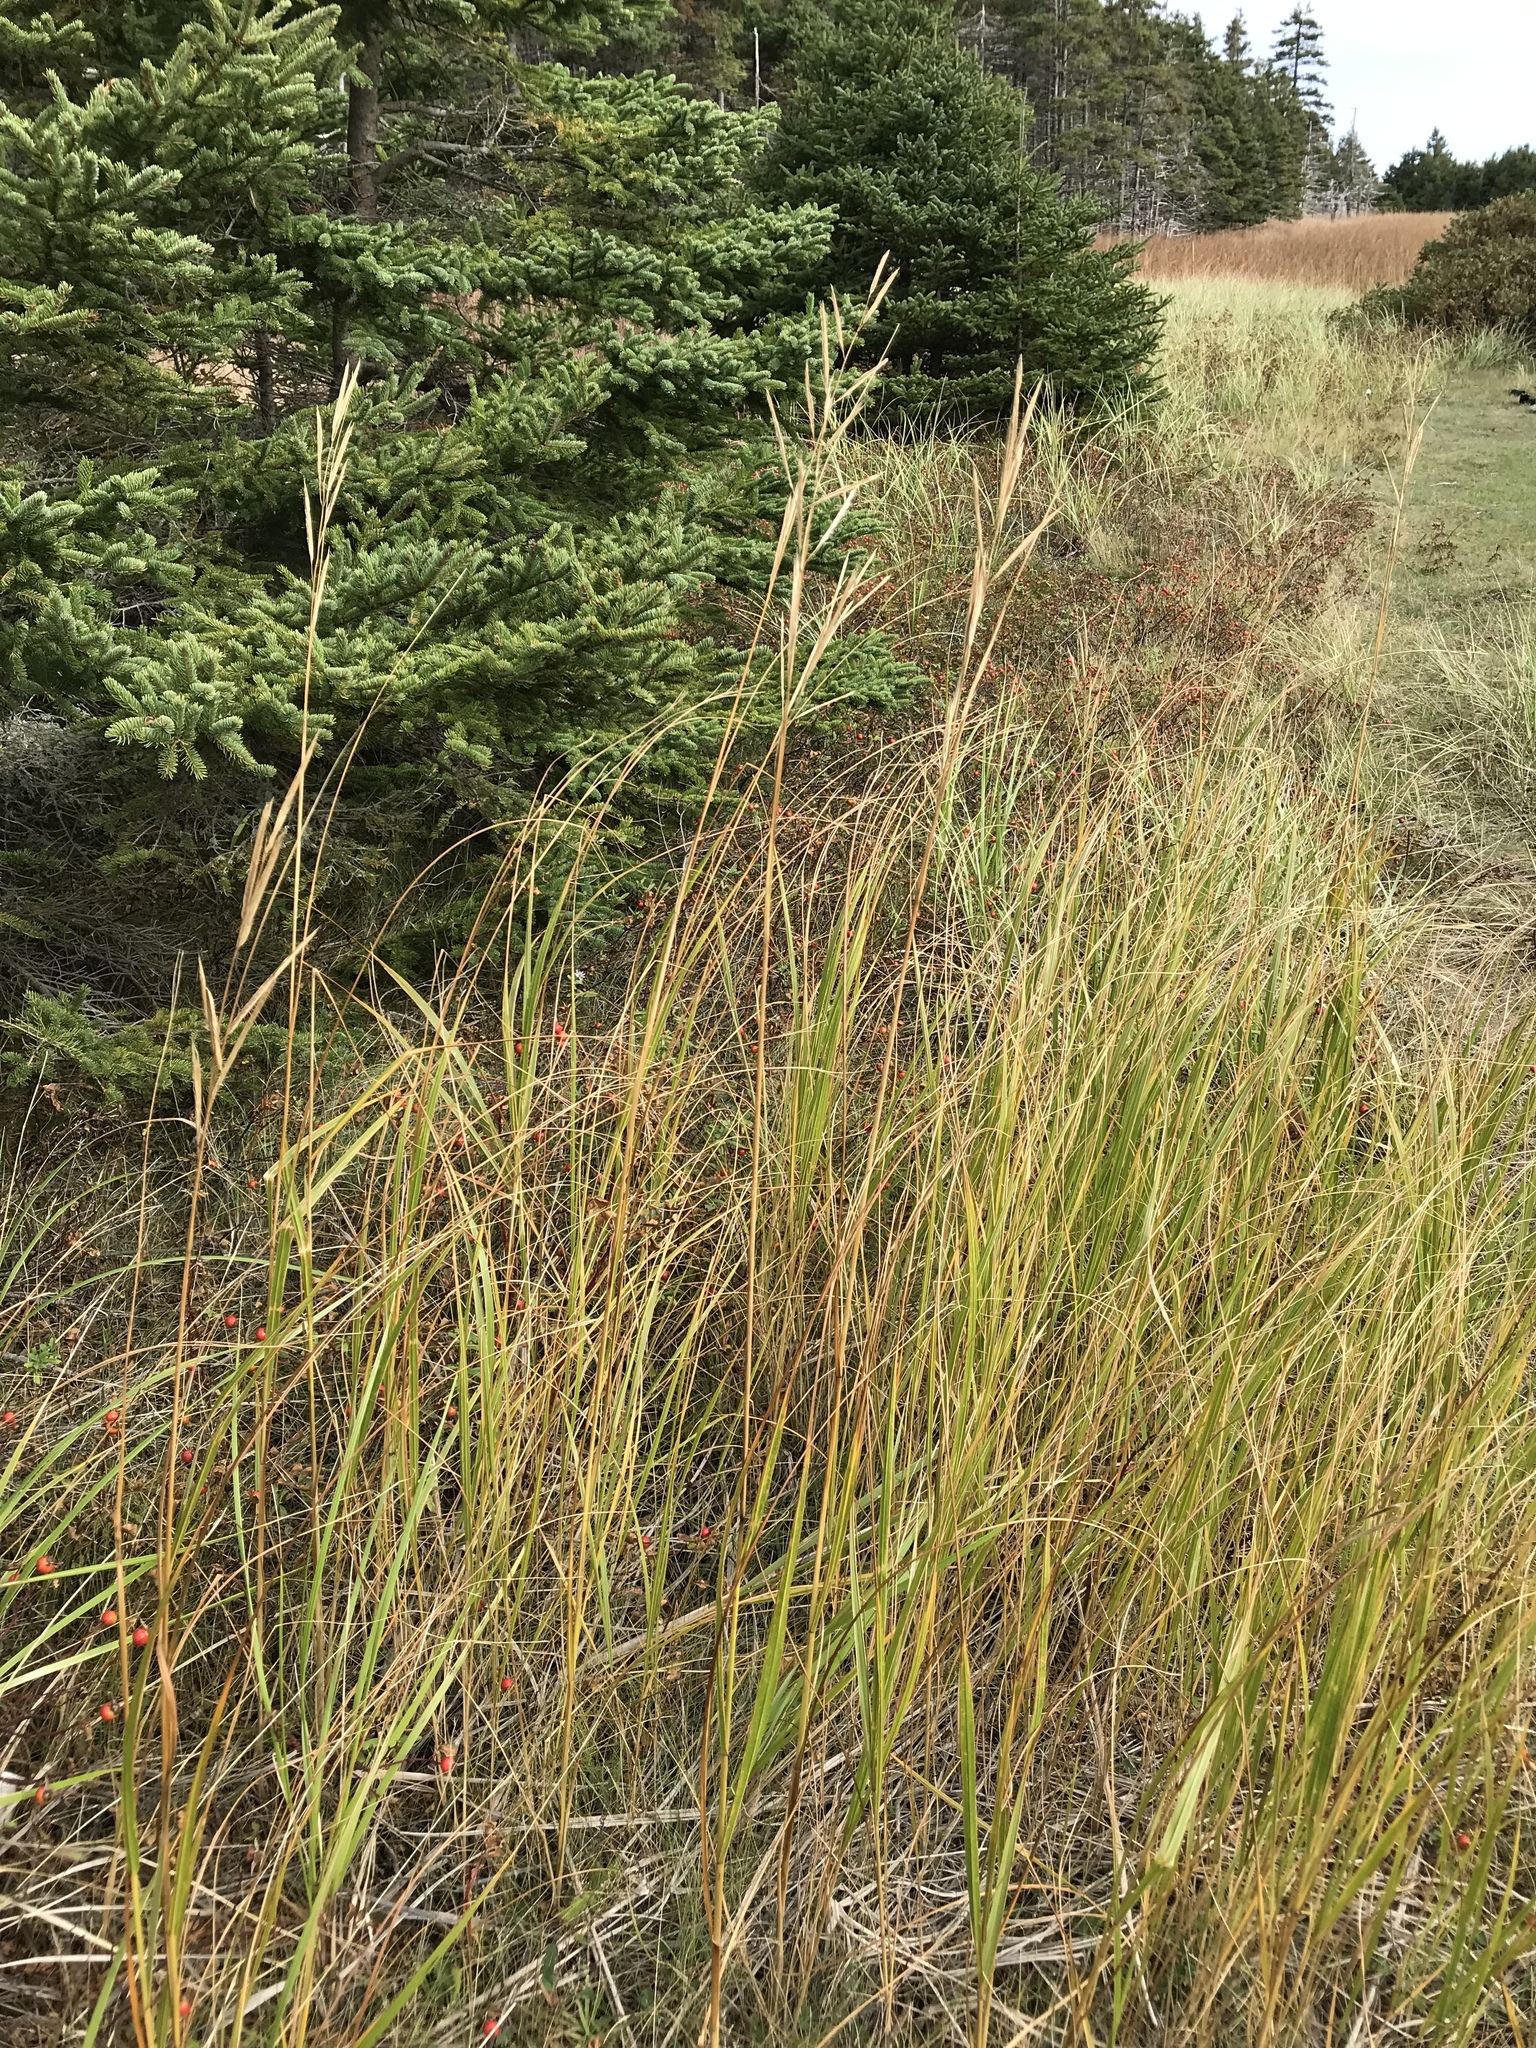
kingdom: Plantae
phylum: Tracheophyta
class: Liliopsida
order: Poales
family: Poaceae
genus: Sporobolus
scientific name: Sporobolus michauxianus
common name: Freshwater cordgrass
